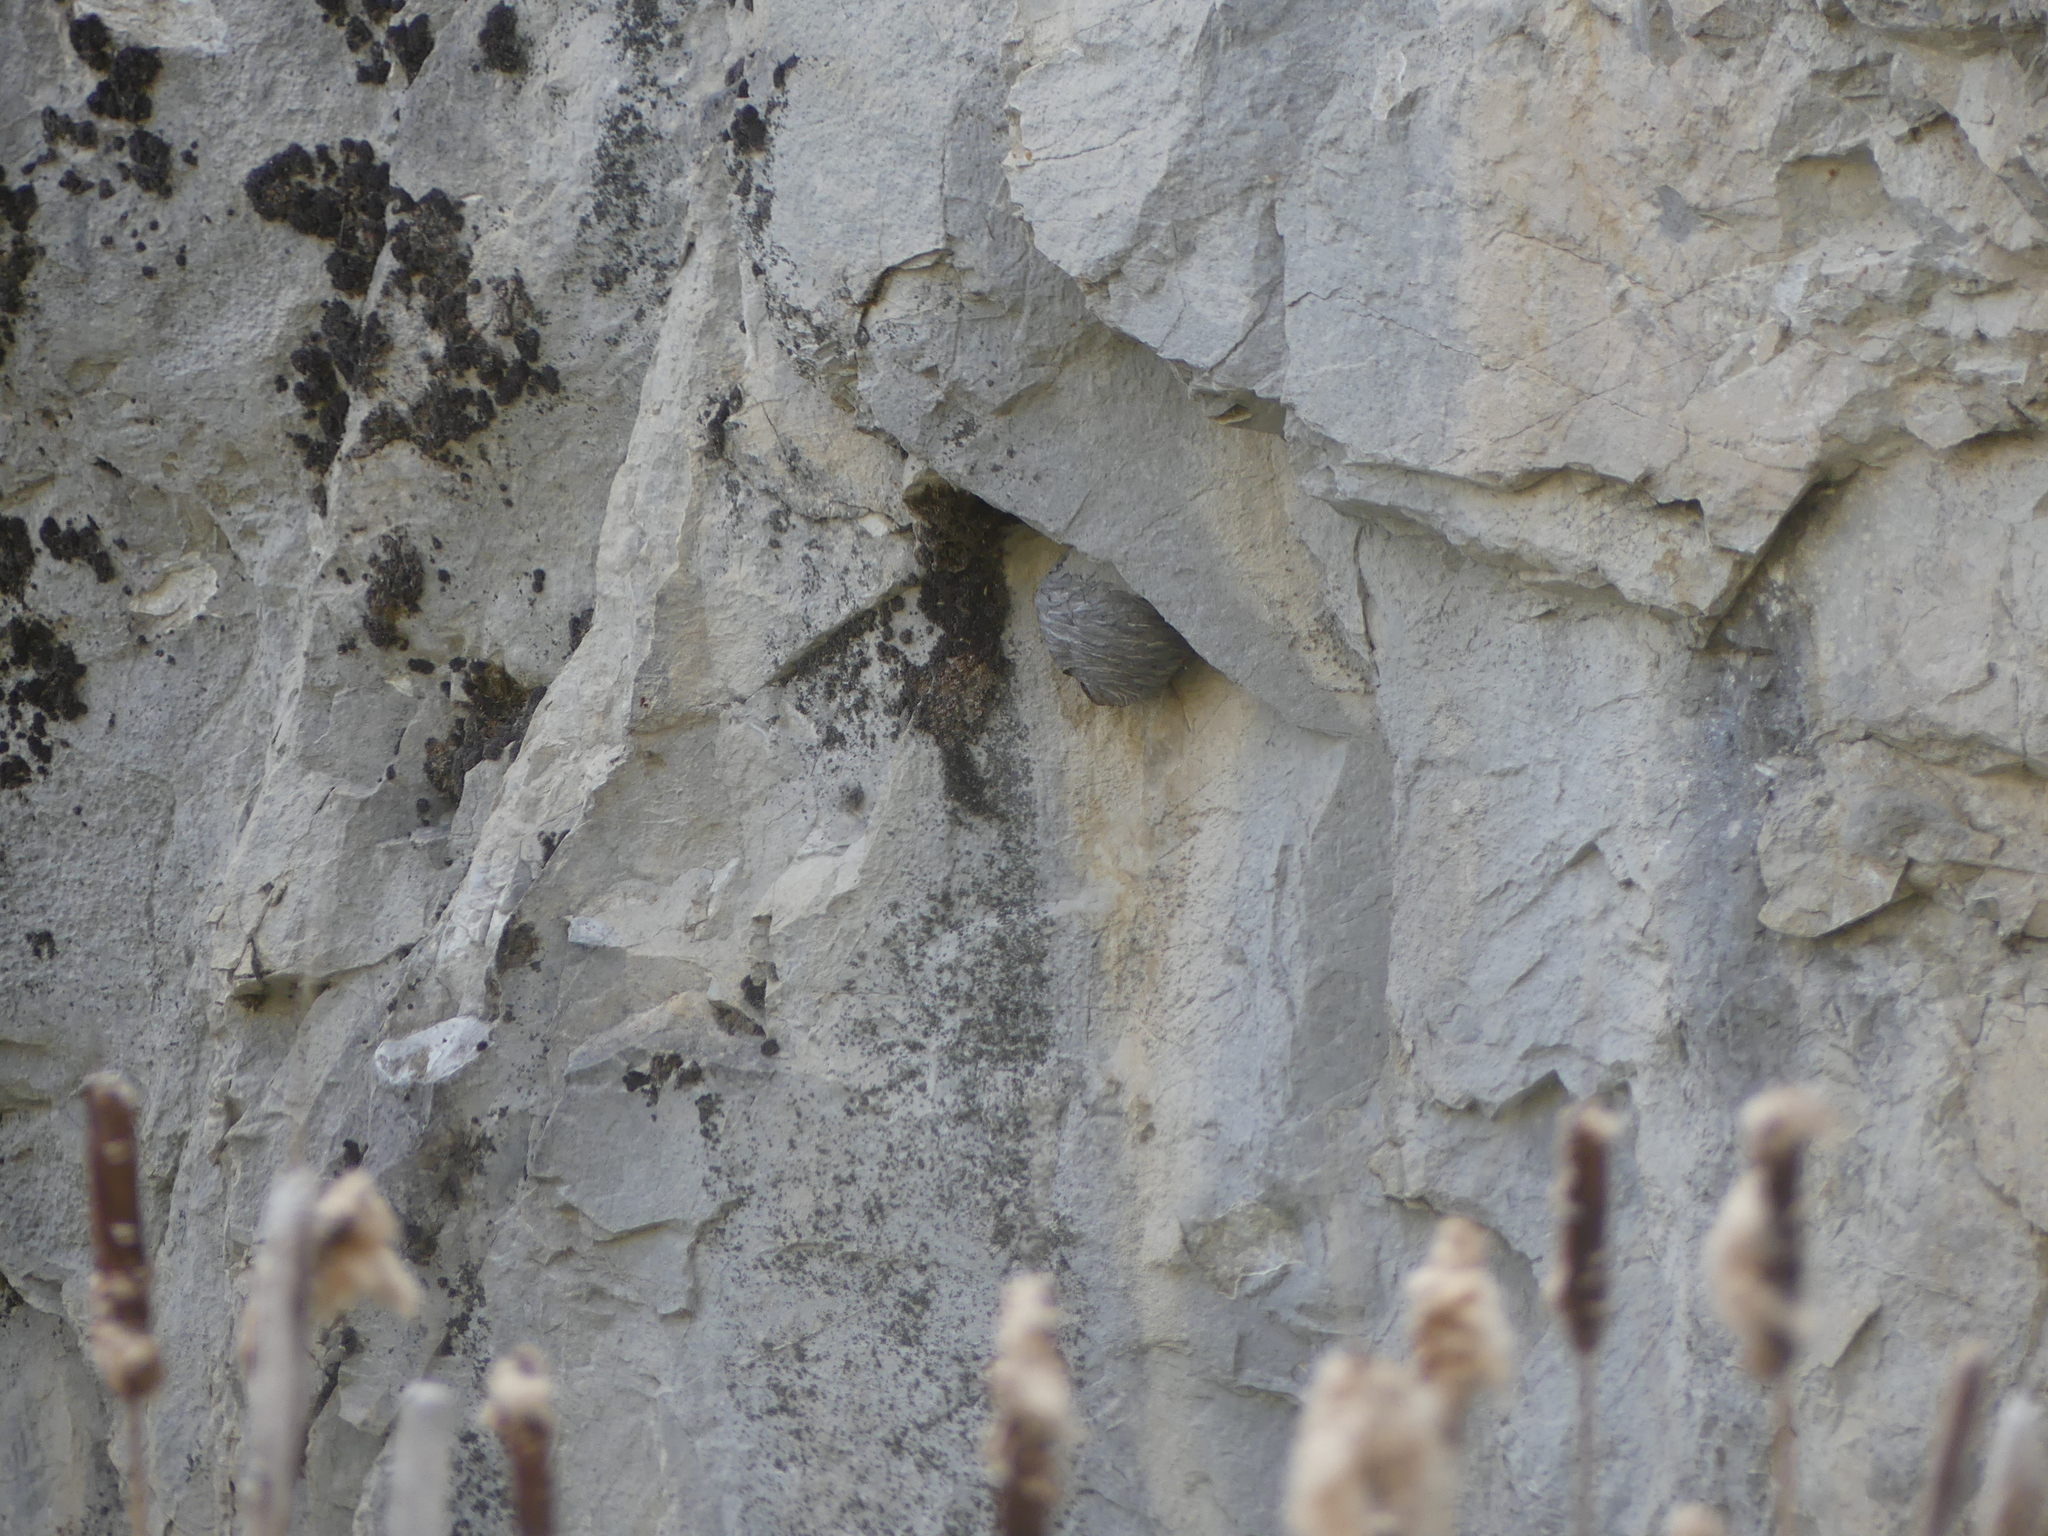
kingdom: Animalia
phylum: Arthropoda
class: Insecta
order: Hymenoptera
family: Vespidae
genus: Dolichovespula
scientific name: Dolichovespula
